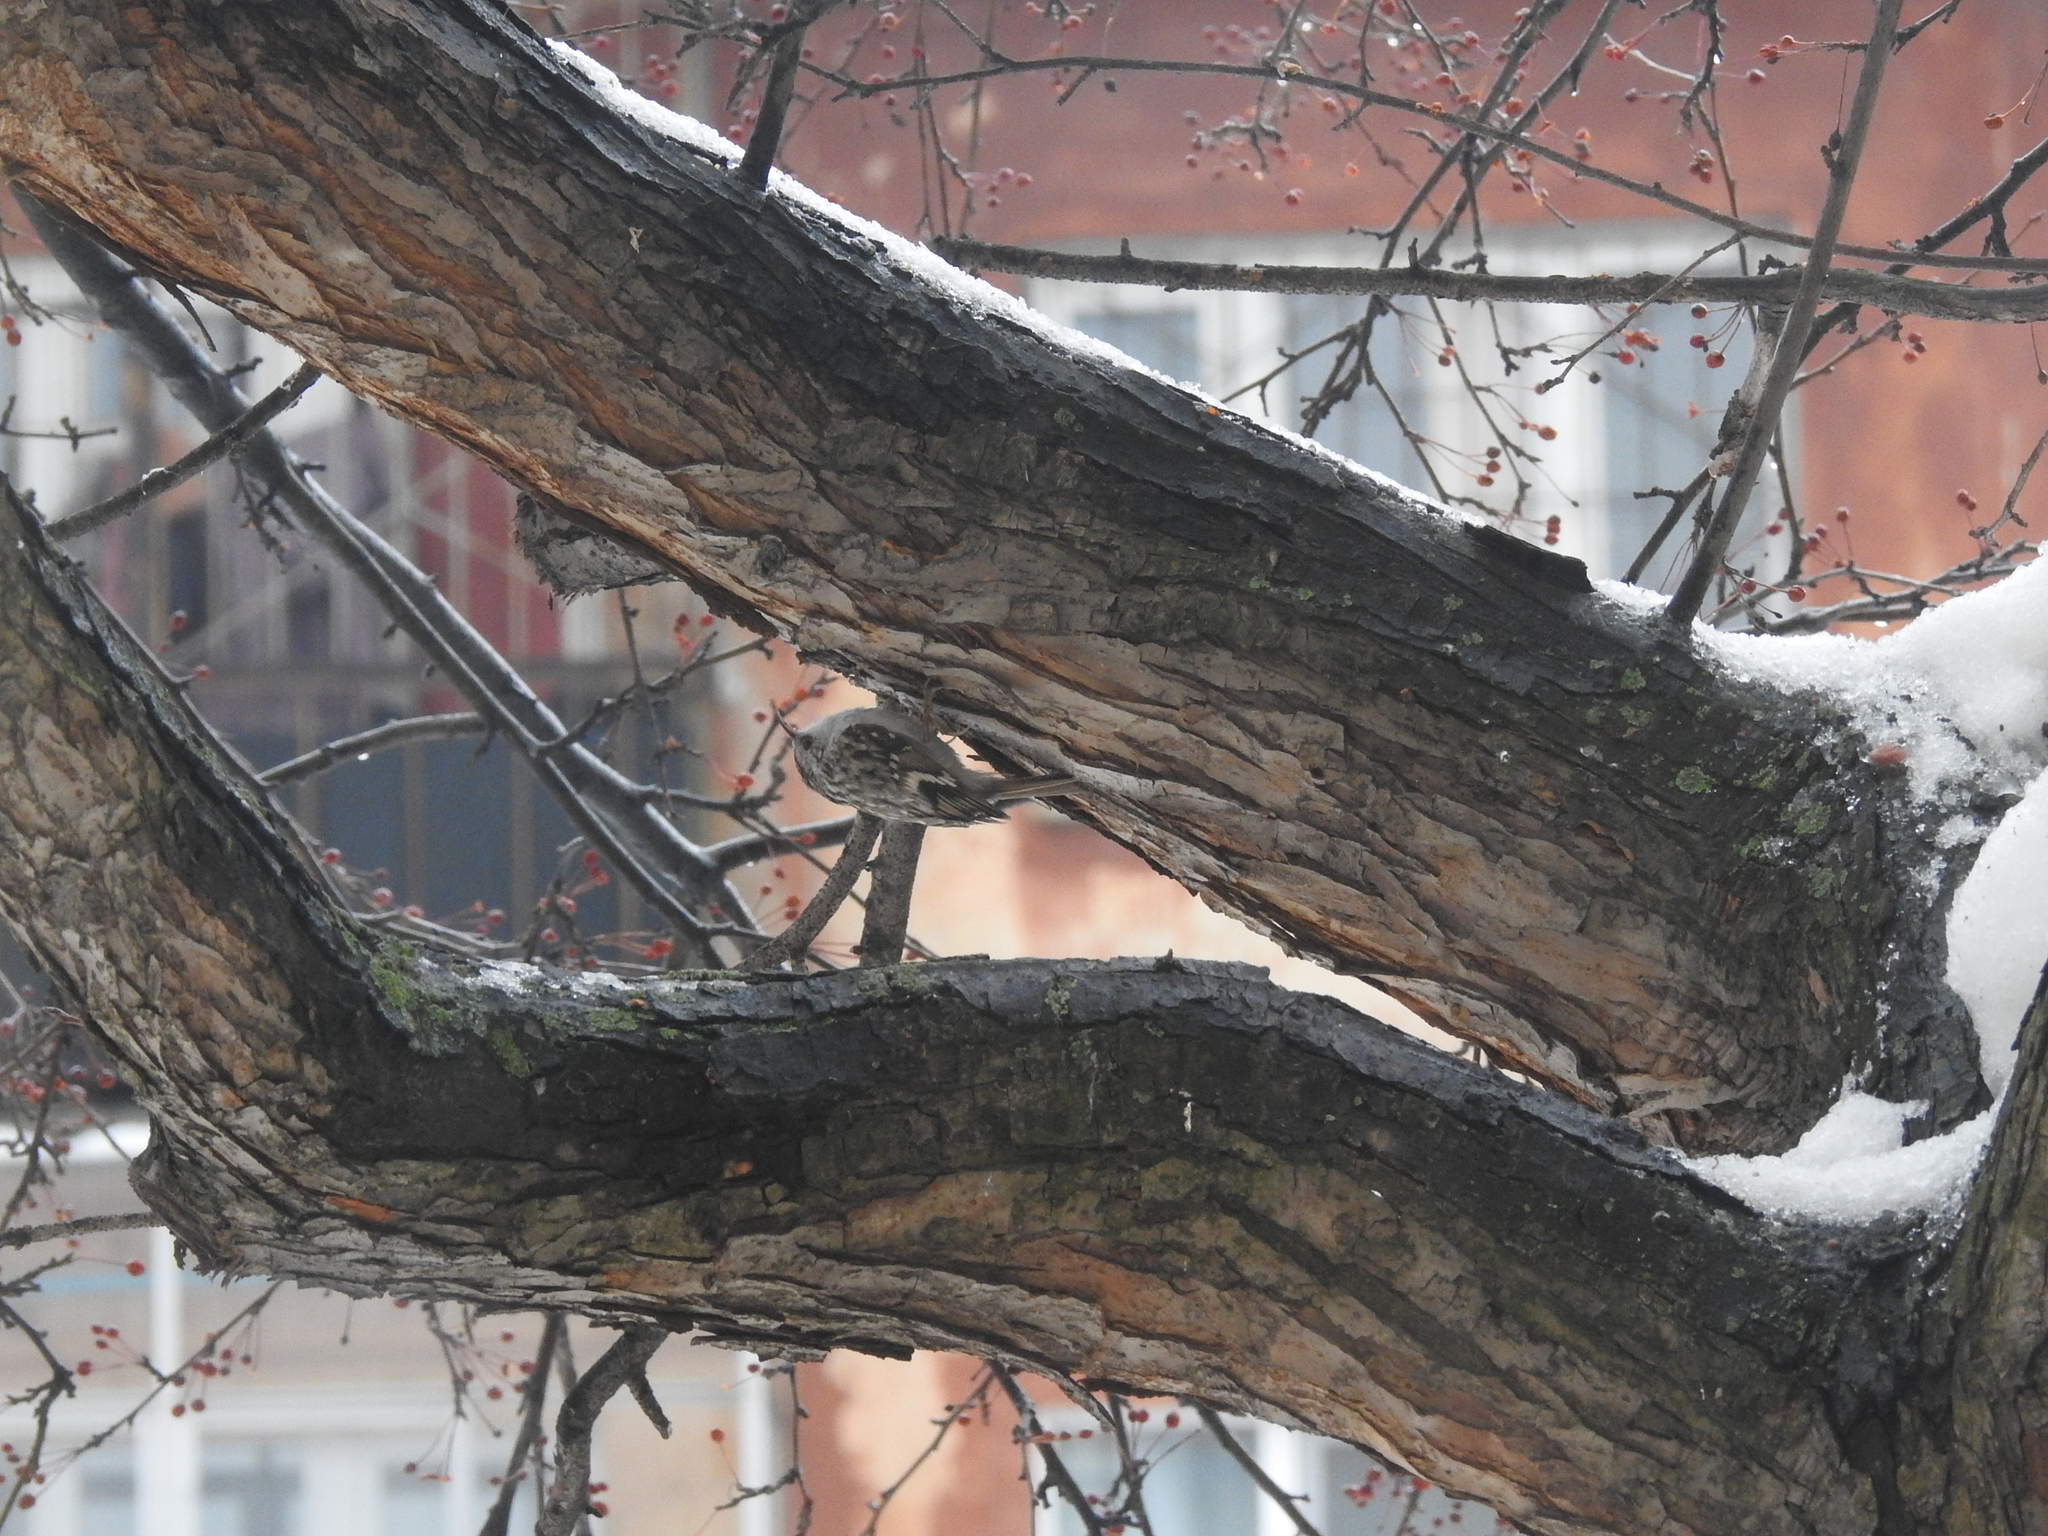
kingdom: Animalia
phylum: Chordata
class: Aves
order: Passeriformes
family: Certhiidae
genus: Certhia
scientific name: Certhia familiaris
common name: Eurasian treecreeper
